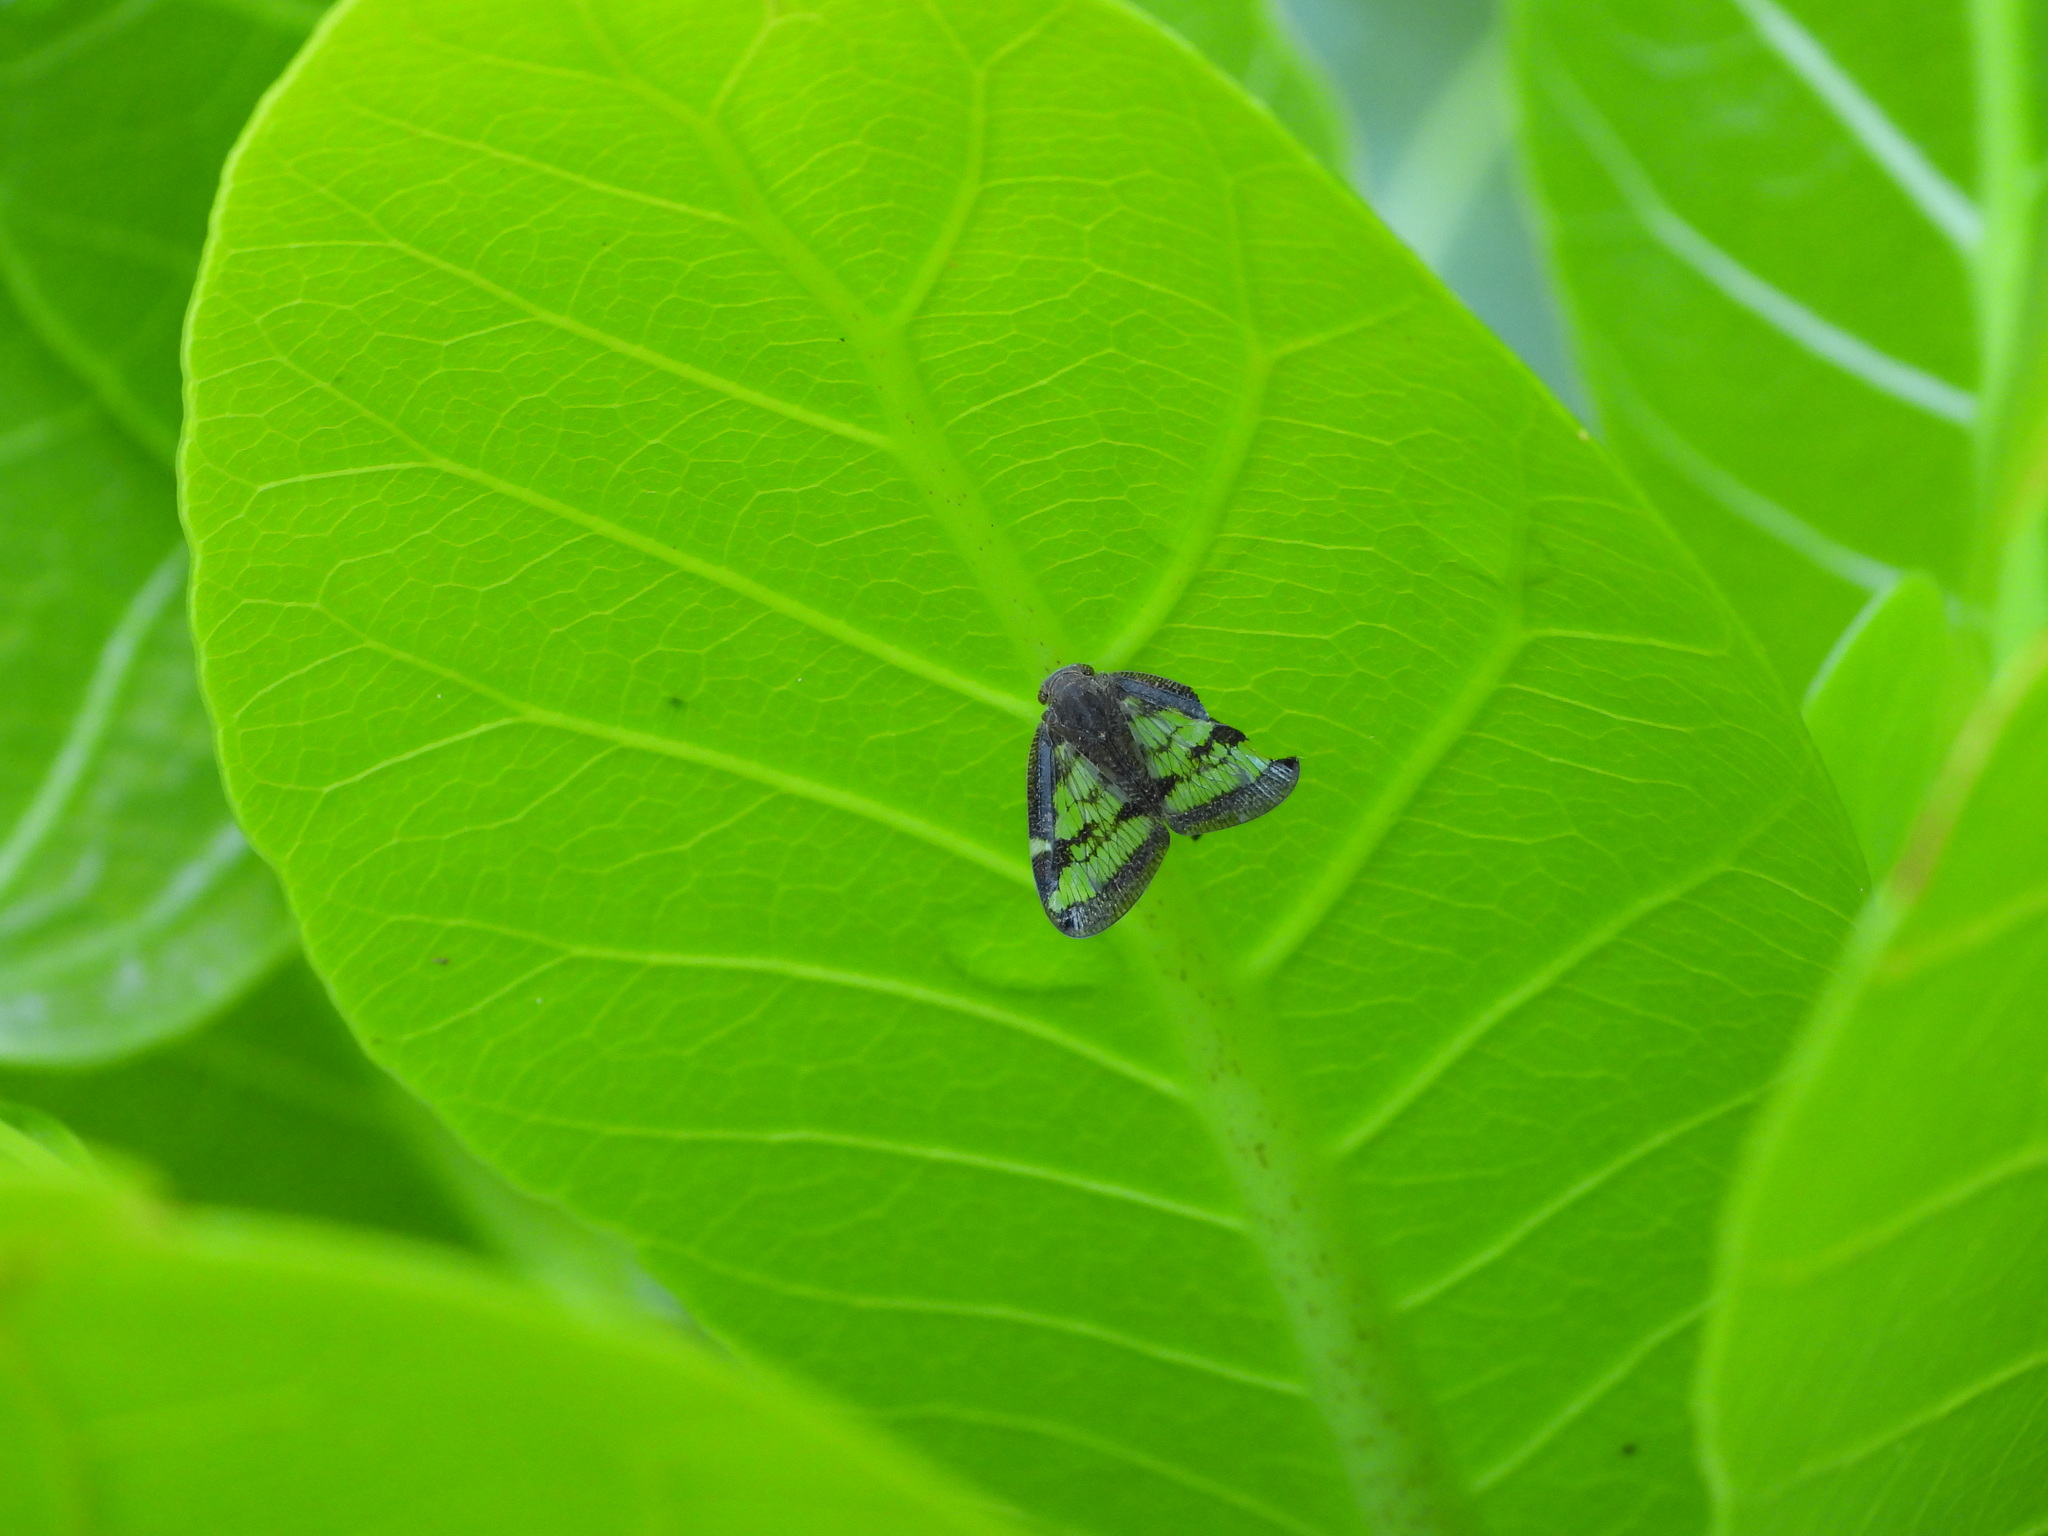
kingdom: Animalia
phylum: Arthropoda
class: Insecta
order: Hemiptera
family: Ricaniidae
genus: Scolypopa
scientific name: Scolypopa australis
